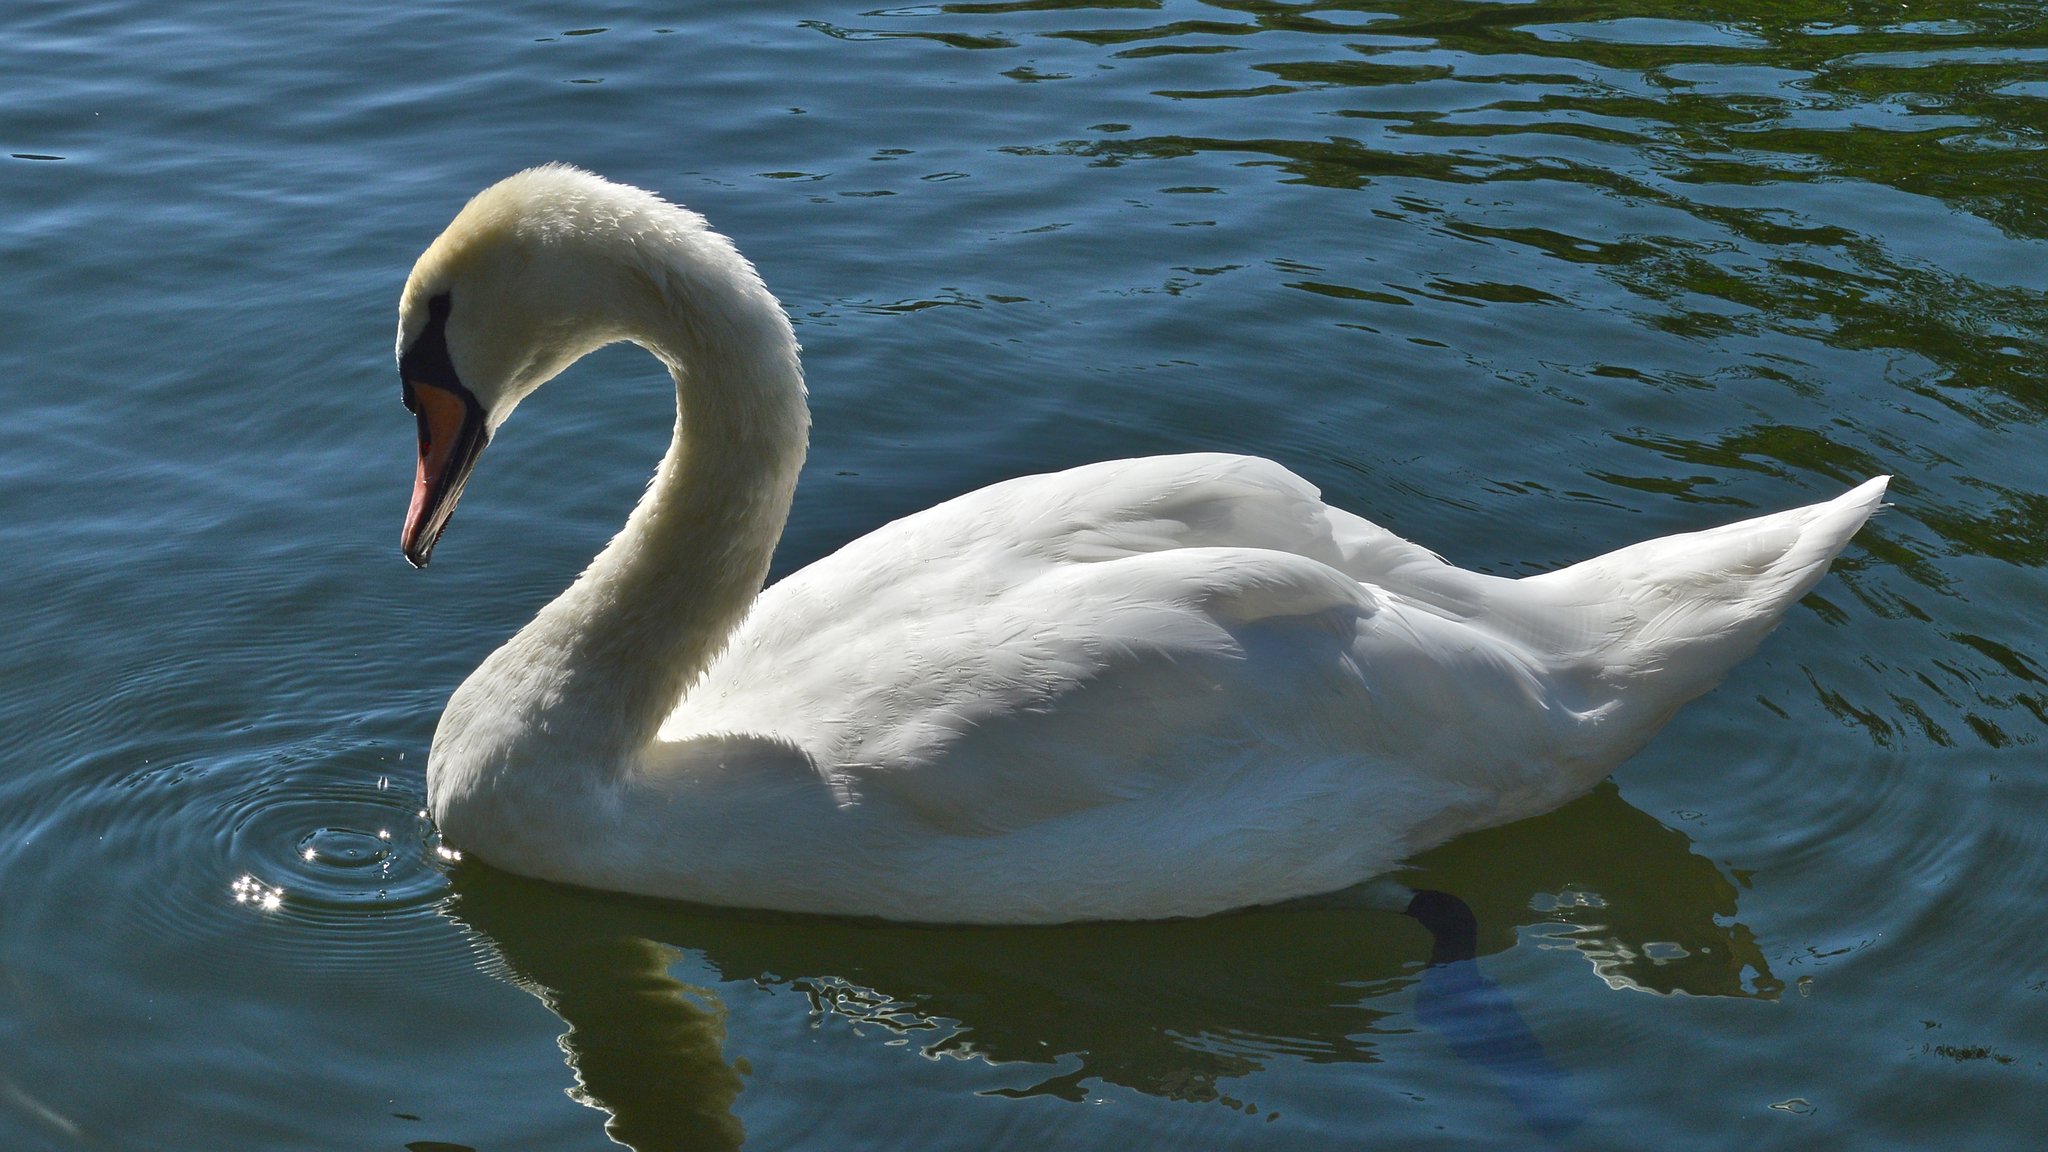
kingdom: Animalia
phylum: Chordata
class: Aves
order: Anseriformes
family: Anatidae
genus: Cygnus
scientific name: Cygnus olor
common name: Mute swan
